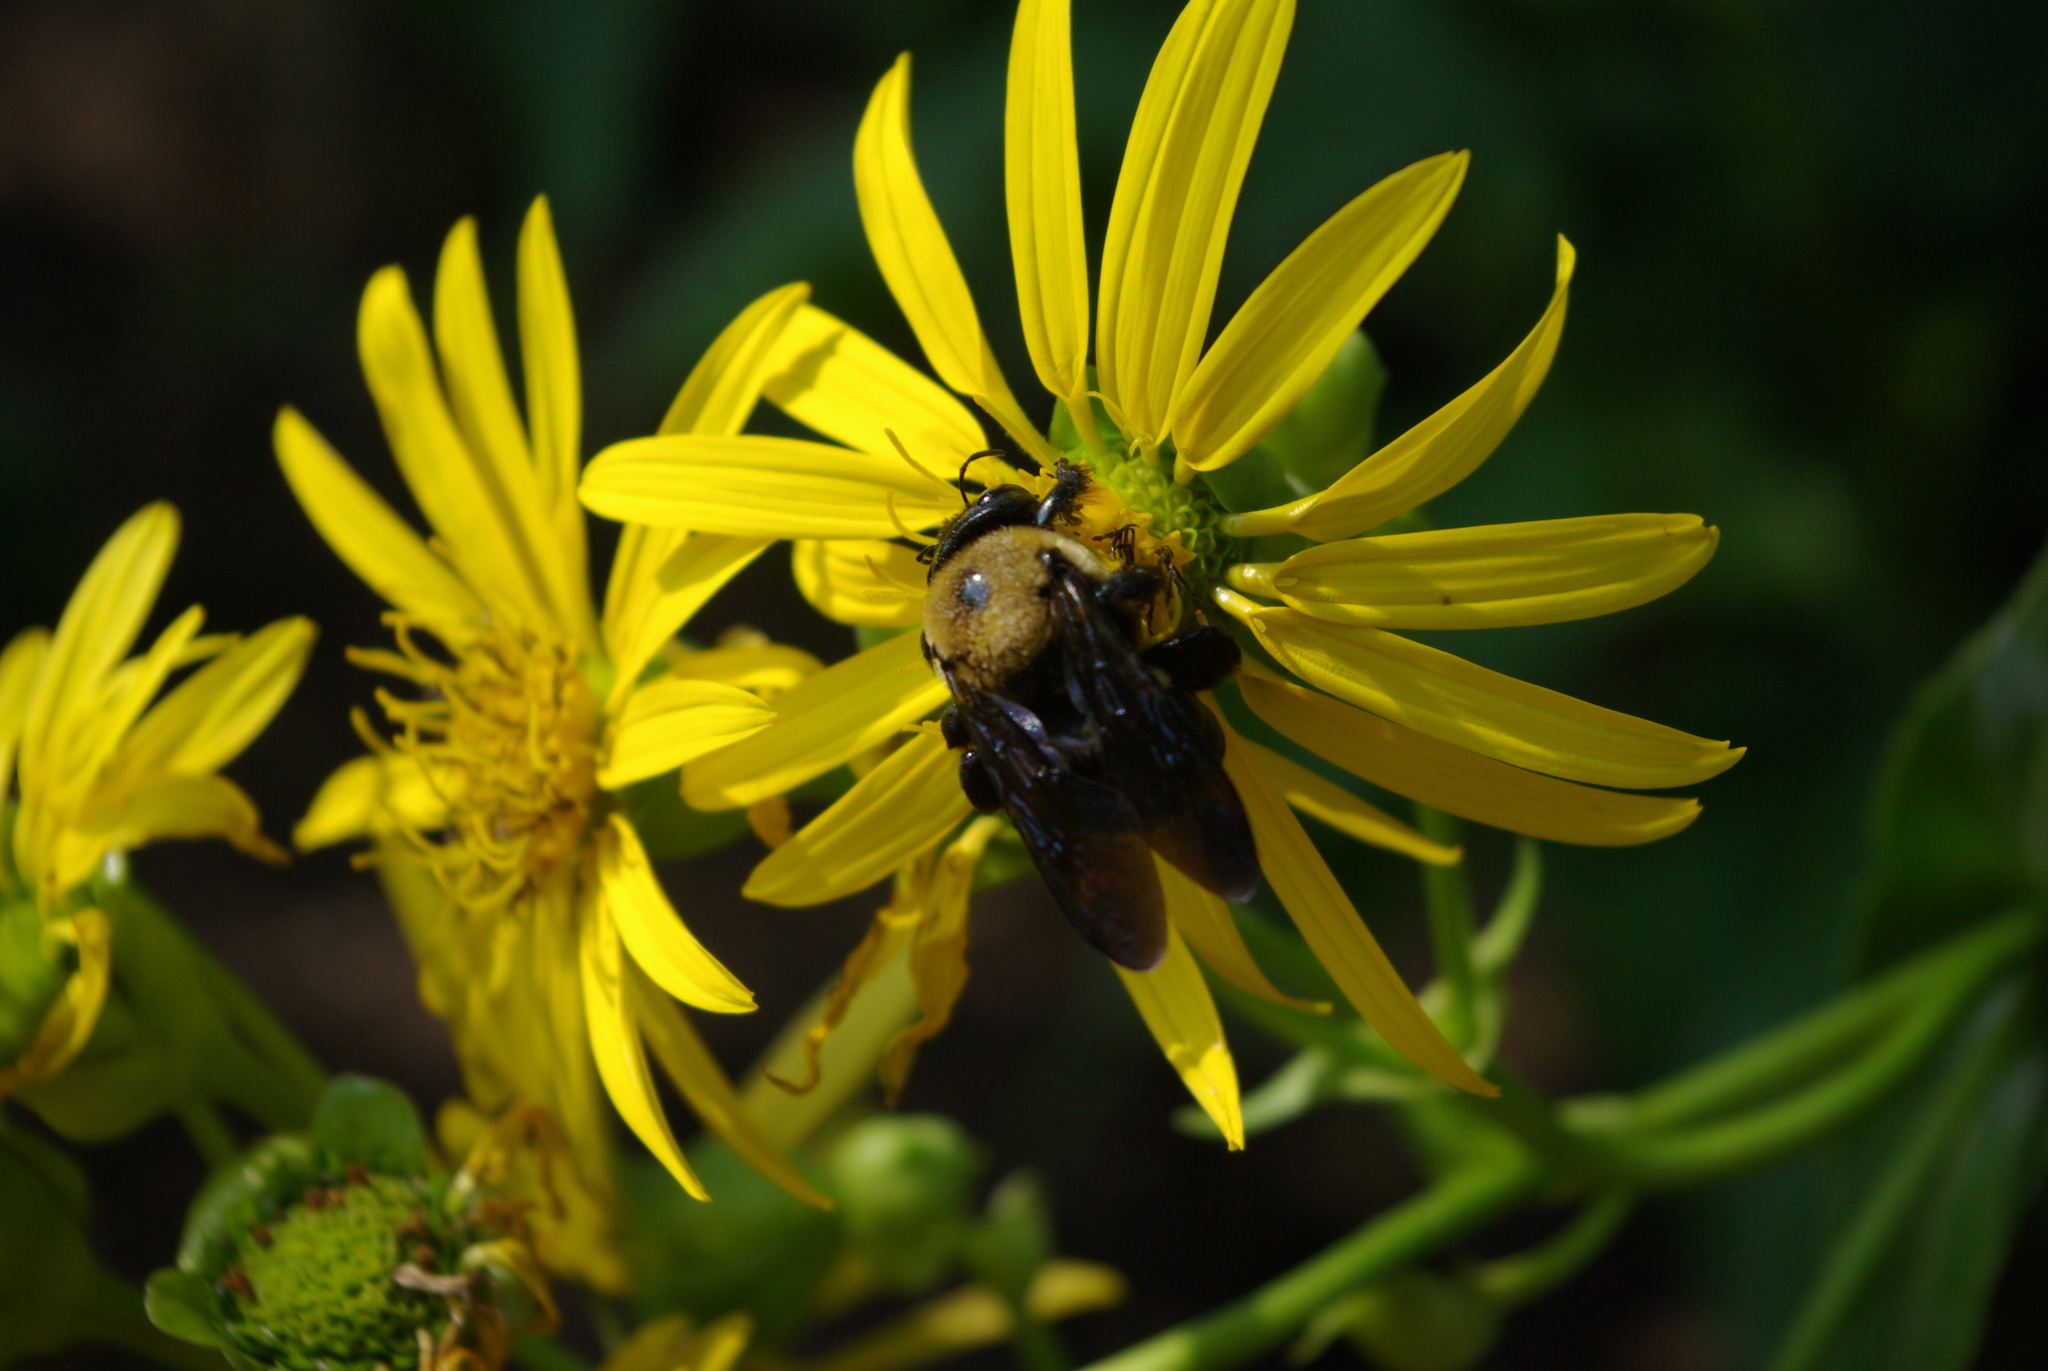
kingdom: Animalia
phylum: Arthropoda
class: Insecta
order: Hymenoptera
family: Apidae
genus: Xylocopa
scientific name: Xylocopa virginica
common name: Carpenter bee
